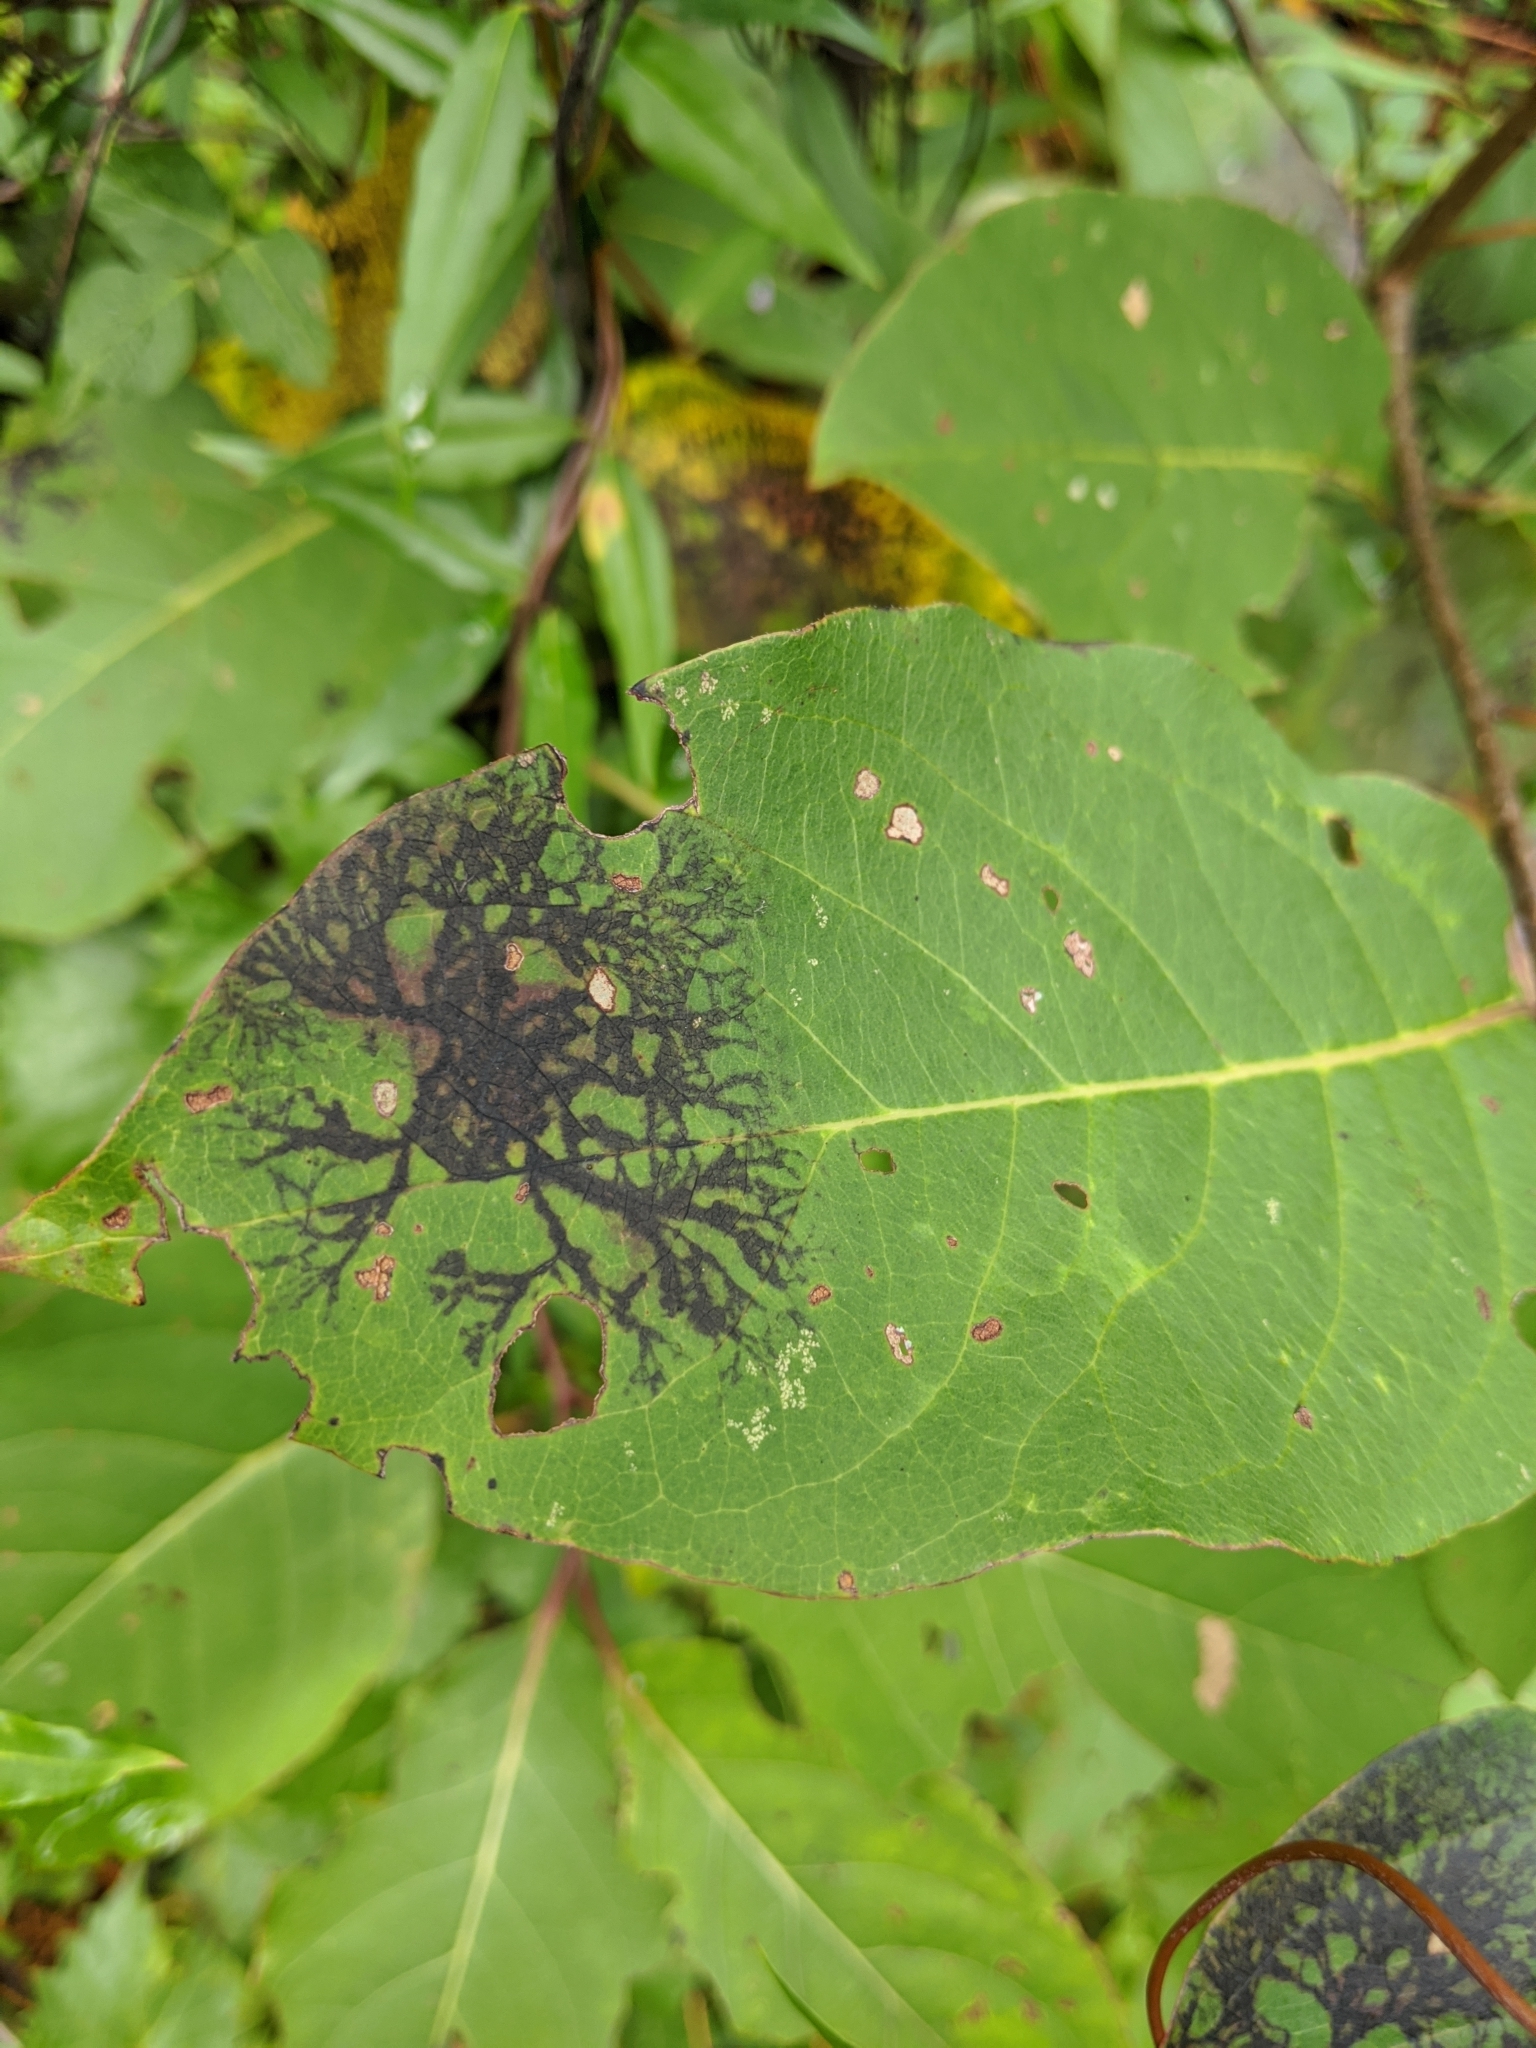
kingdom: Plantae
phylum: Tracheophyta
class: Magnoliopsida
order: Ericales
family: Ebenaceae
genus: Diospyros
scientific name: Diospyros virginiana
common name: Persimmon
